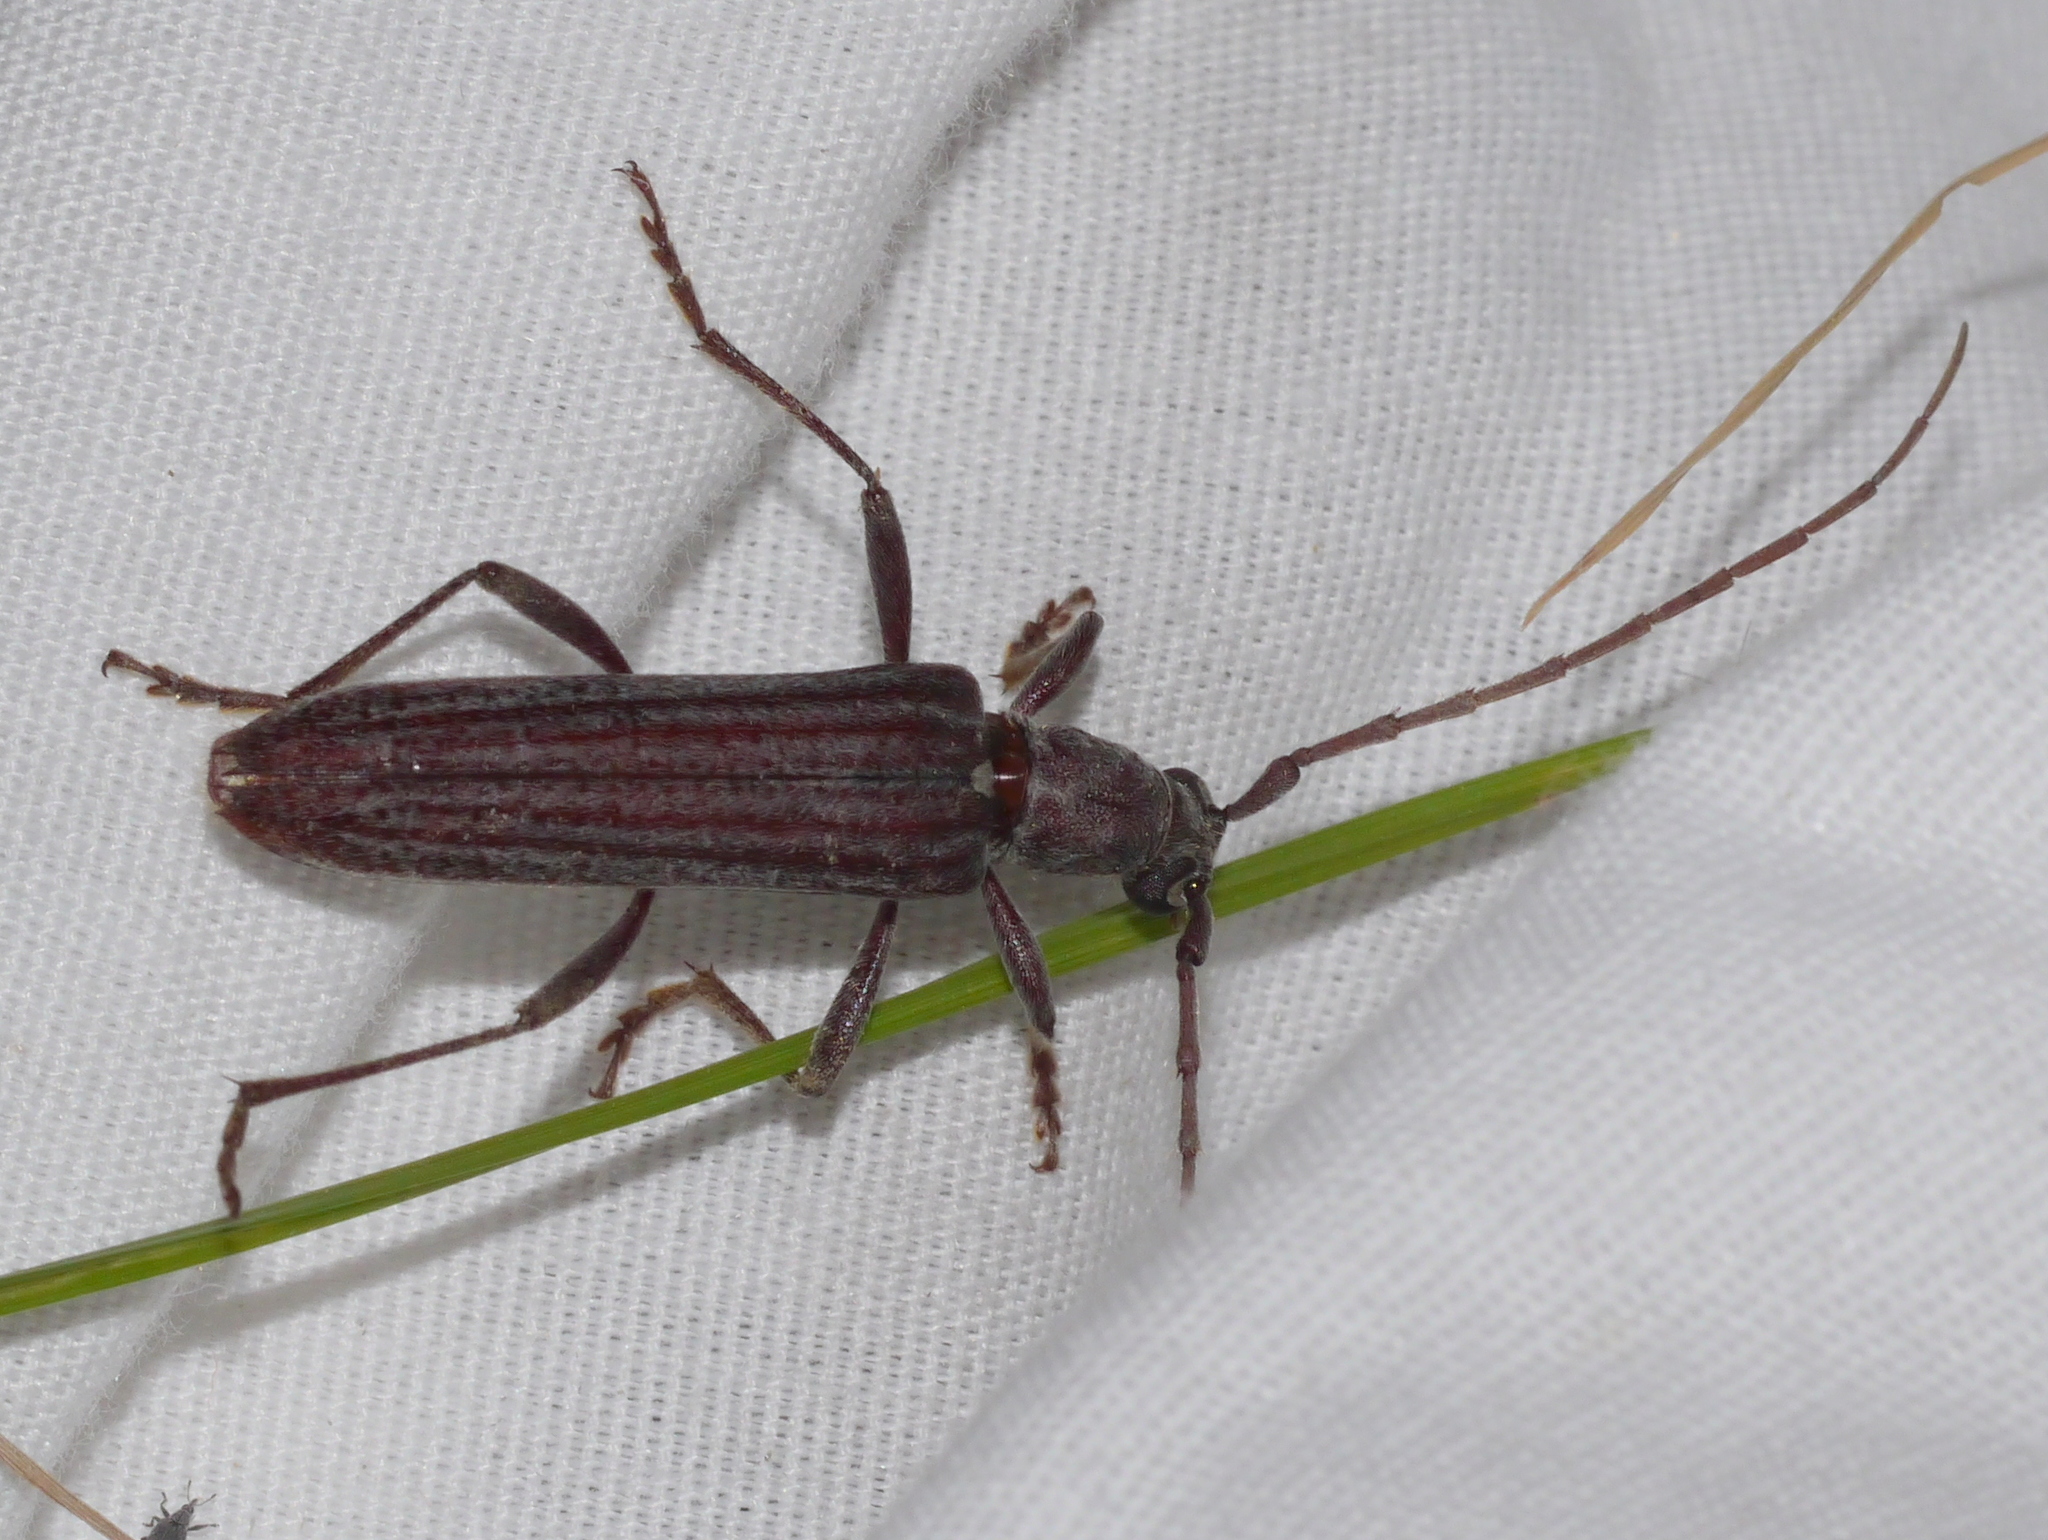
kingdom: Animalia
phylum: Arthropoda
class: Insecta
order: Coleoptera
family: Cerambycidae
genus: Aneflus
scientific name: Aneflus levettei
